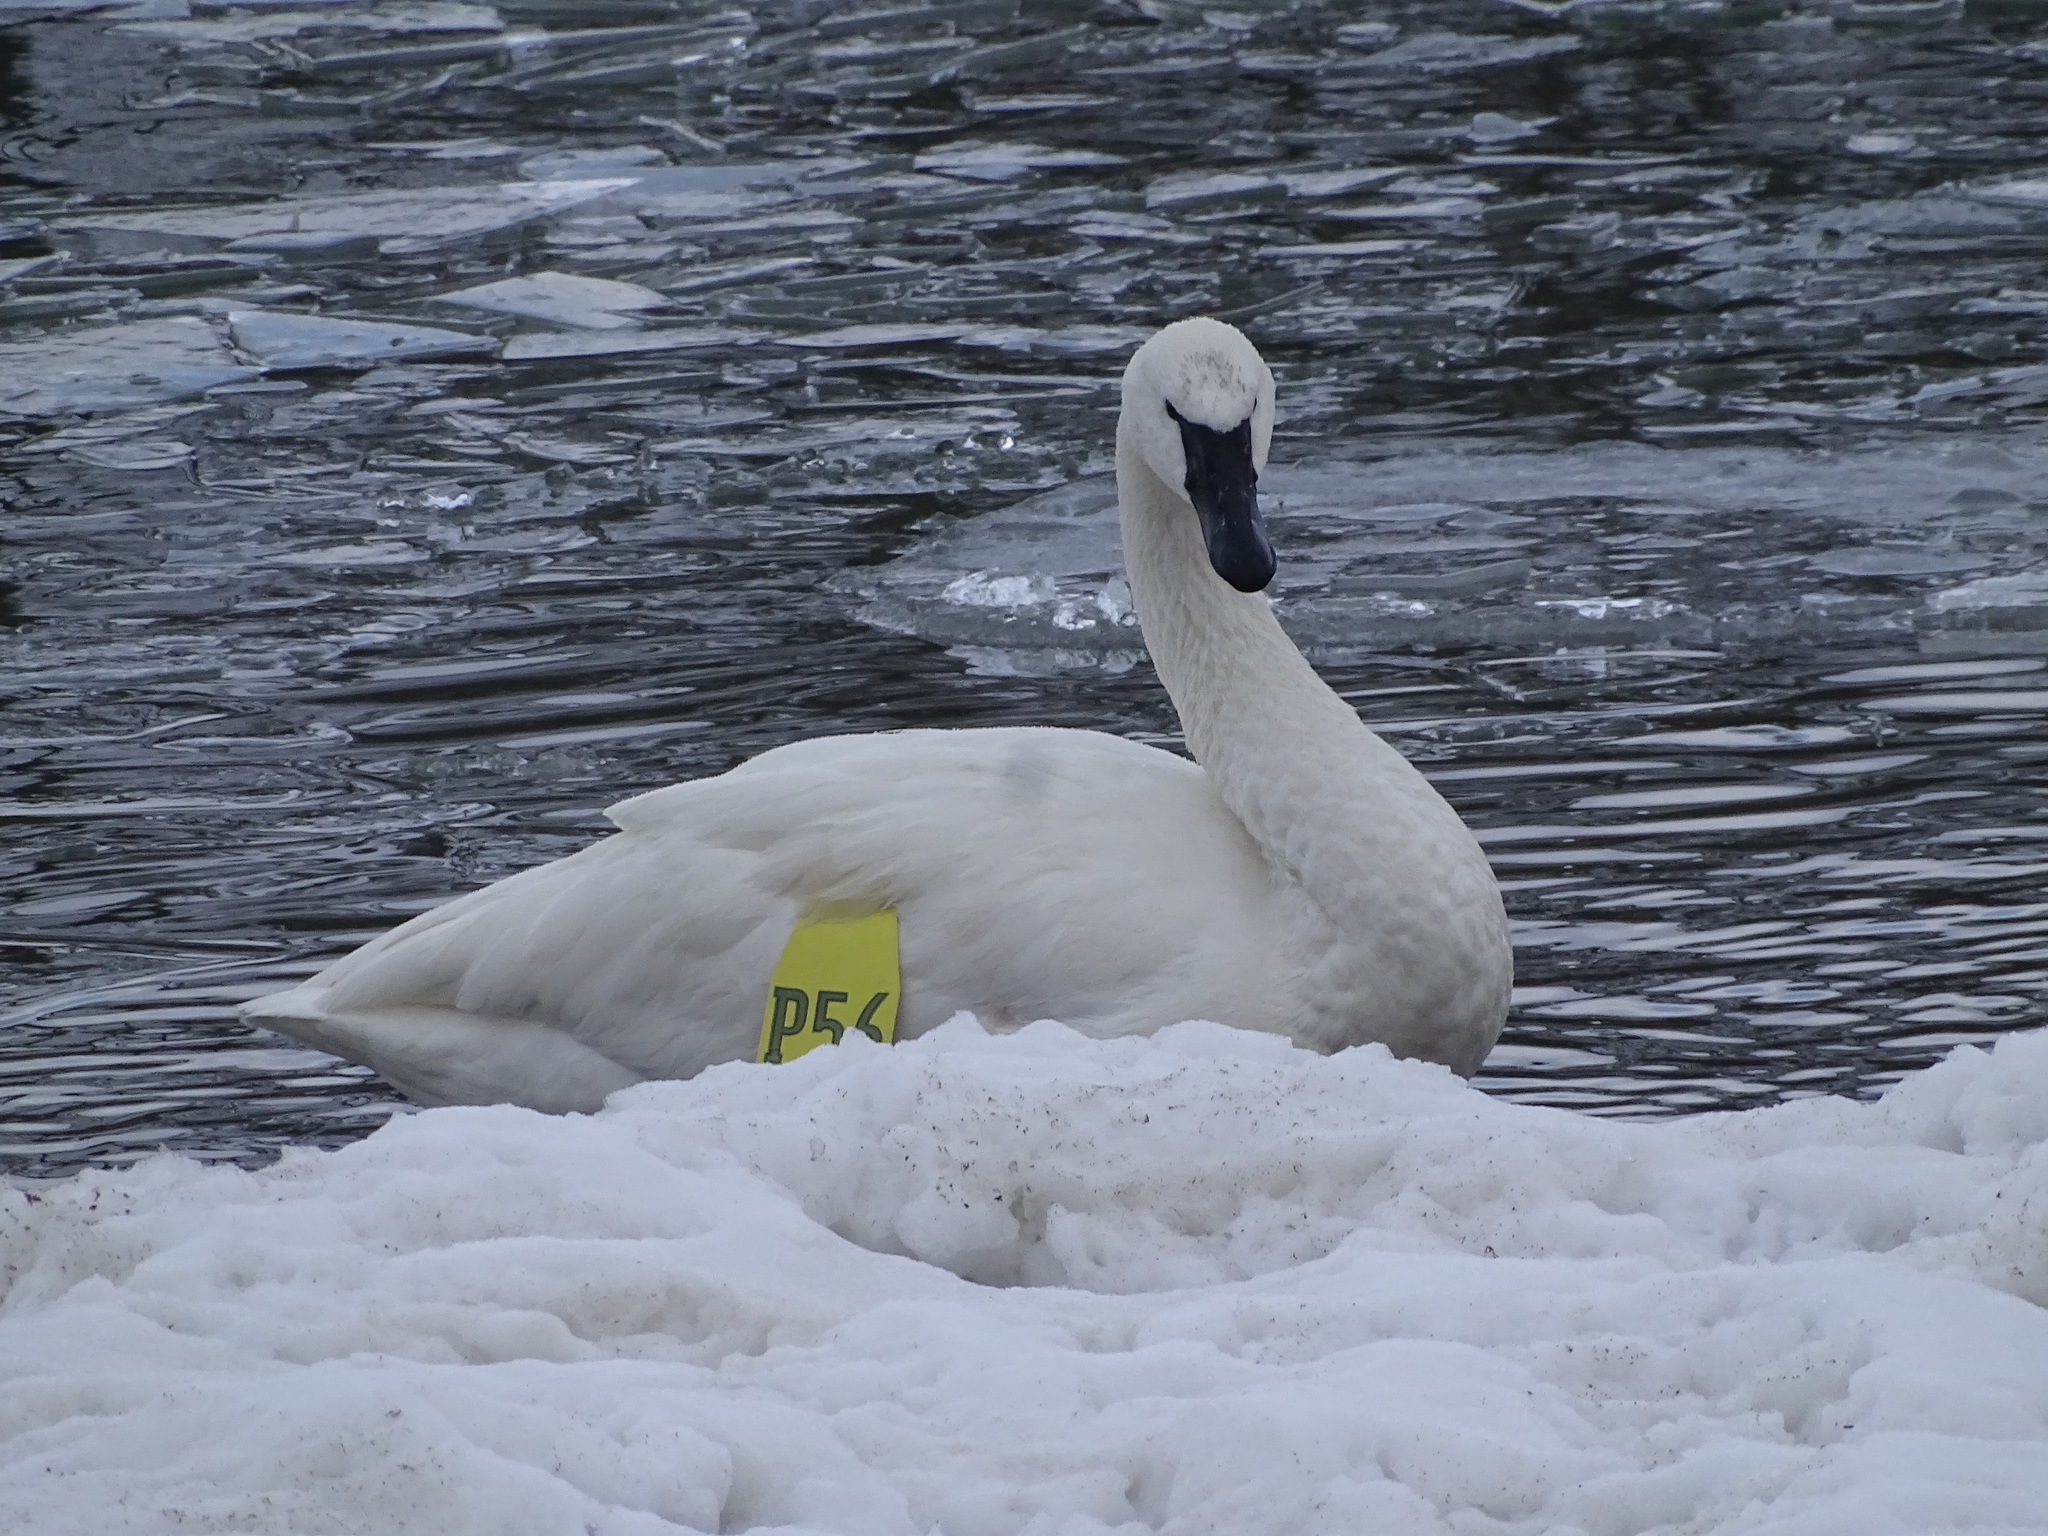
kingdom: Animalia
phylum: Chordata
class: Aves
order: Anseriformes
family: Anatidae
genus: Cygnus
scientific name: Cygnus buccinator
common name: Trumpeter swan
